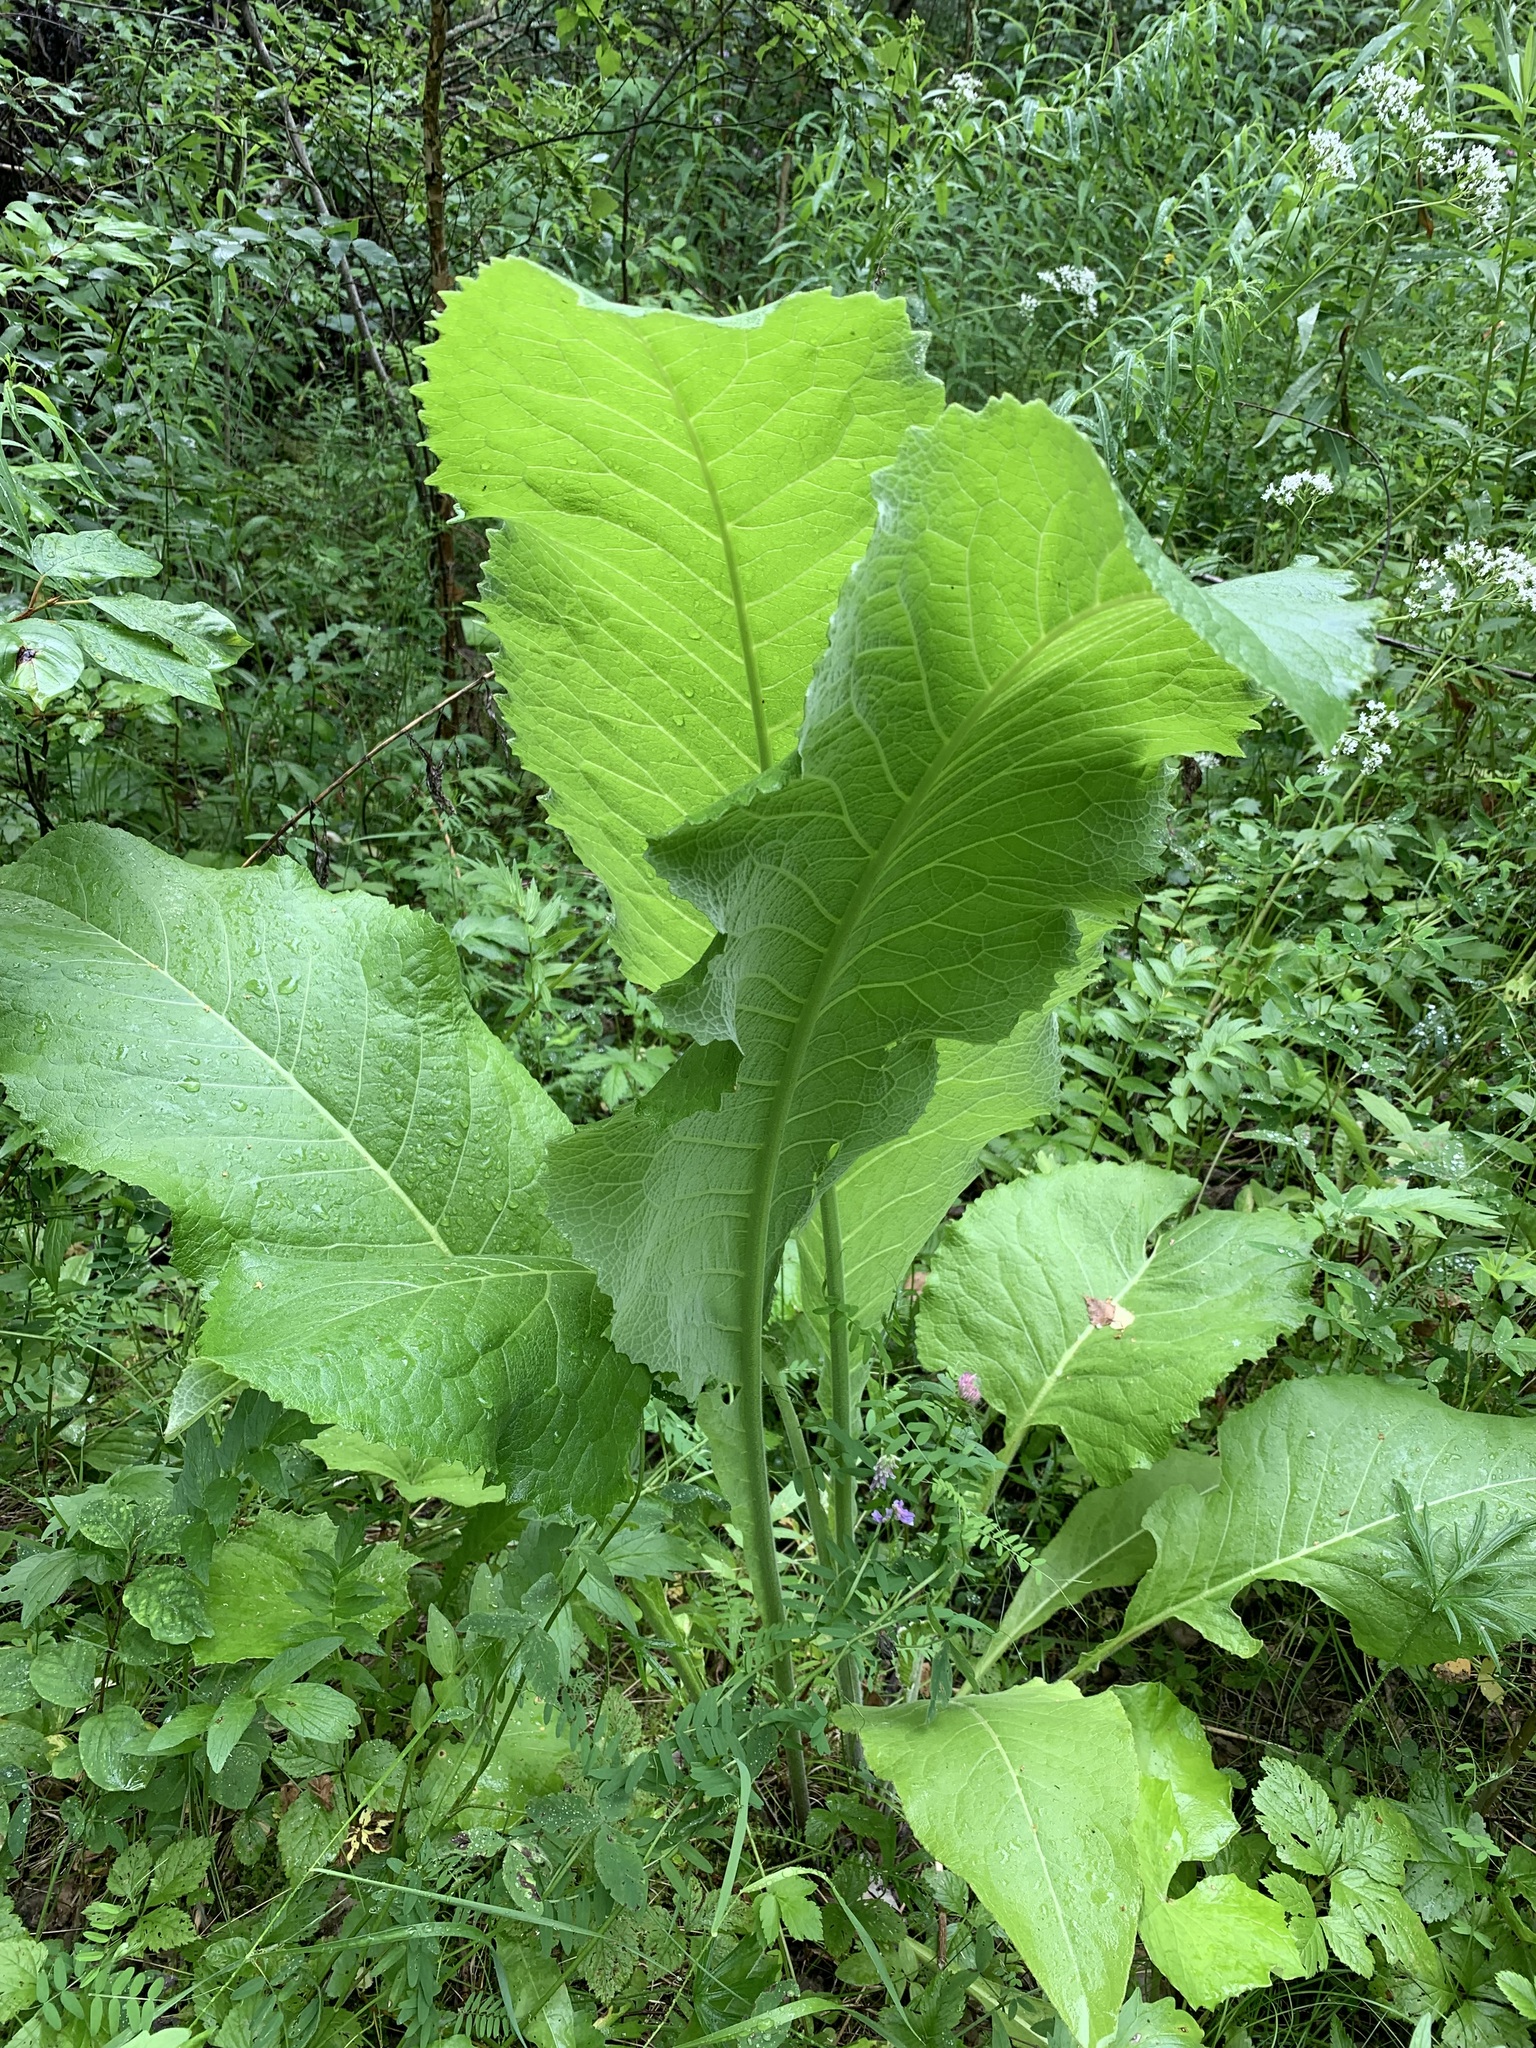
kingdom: Plantae
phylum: Tracheophyta
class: Magnoliopsida
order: Asterales
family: Asteraceae
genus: Inula
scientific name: Inula helenium
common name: Elecampane
